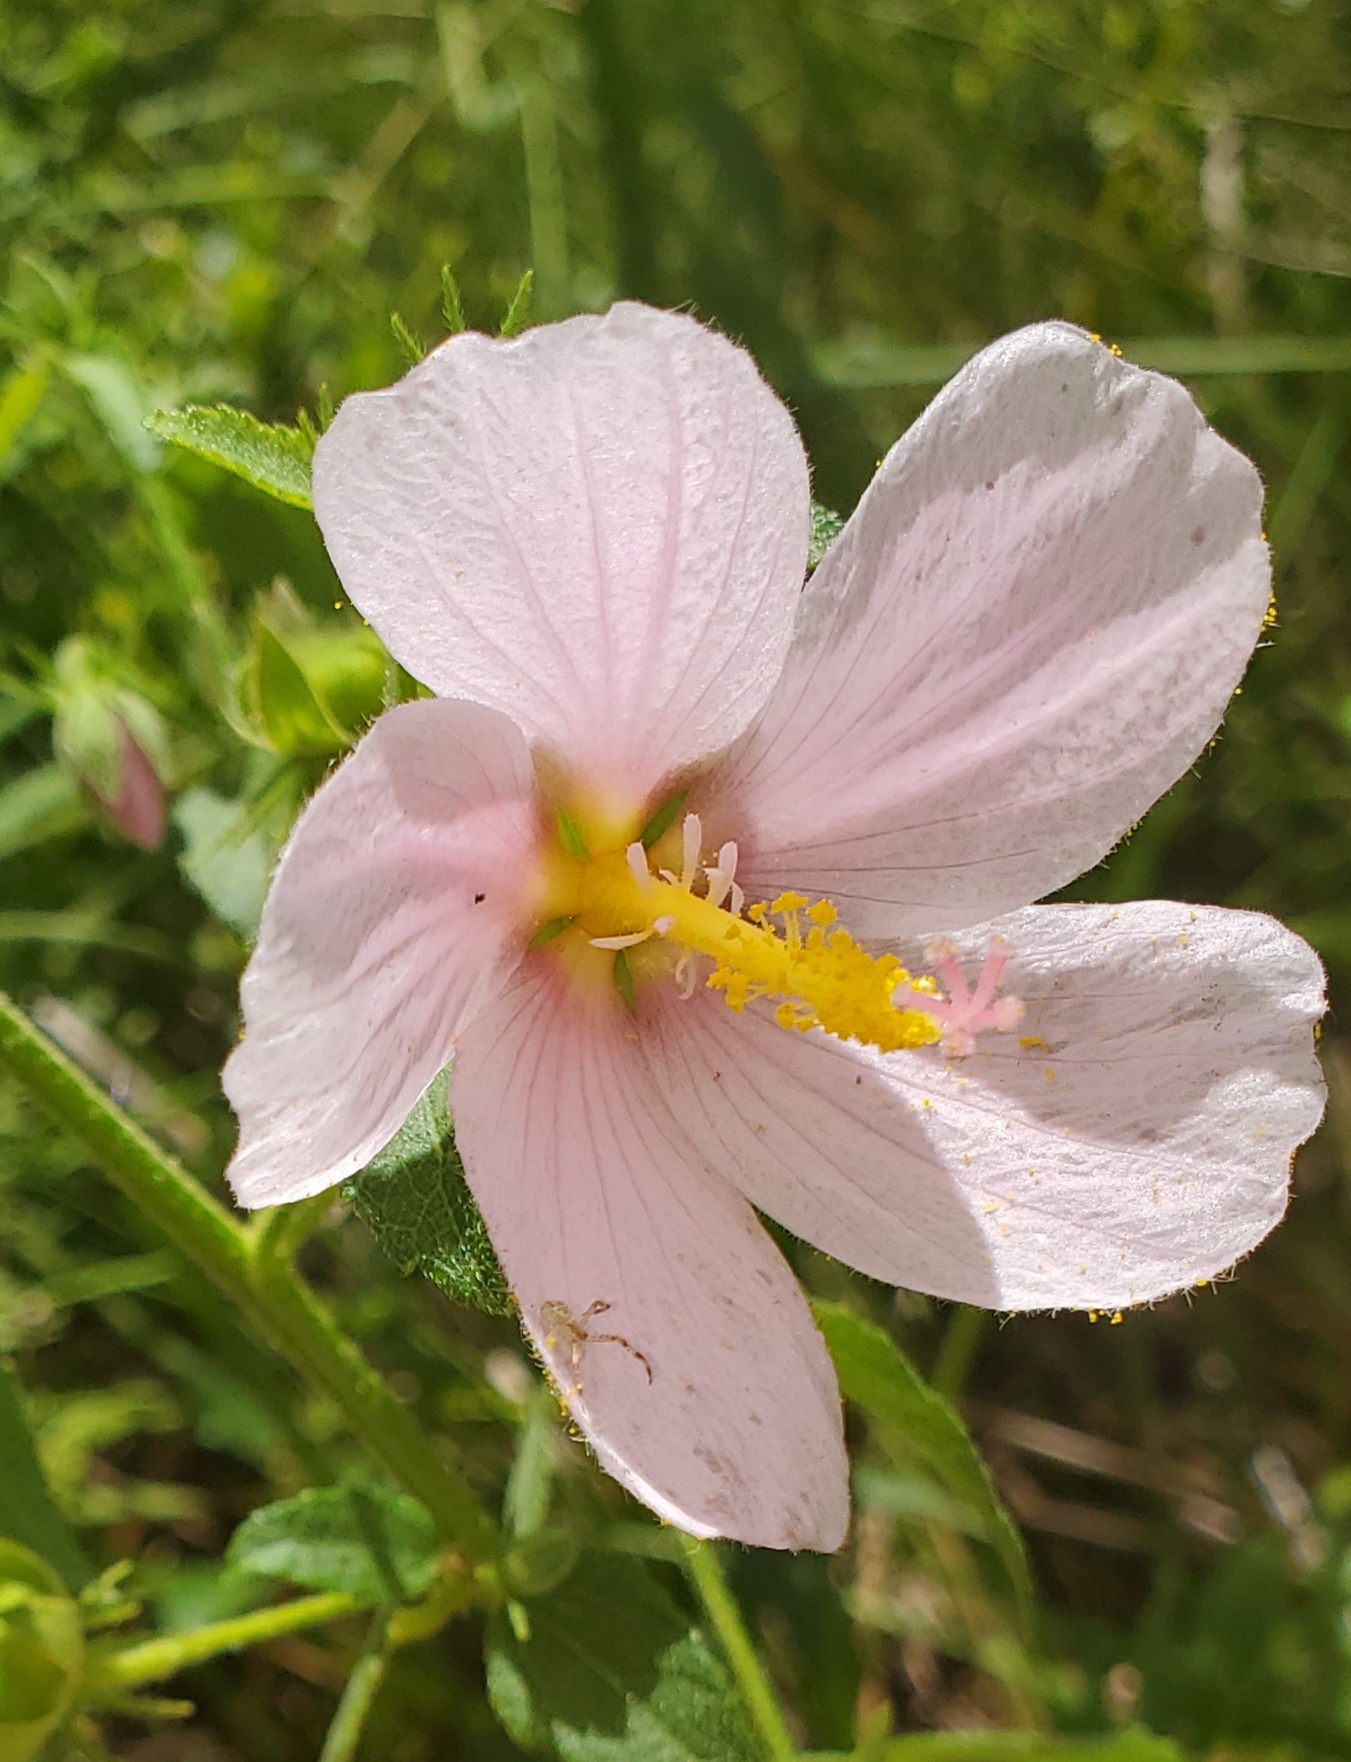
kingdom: Plantae
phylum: Tracheophyta
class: Magnoliopsida
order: Malvales
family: Malvaceae
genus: Kosteletzkya
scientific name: Kosteletzkya pentacarpos
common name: Virginia saltmarsh mallow
